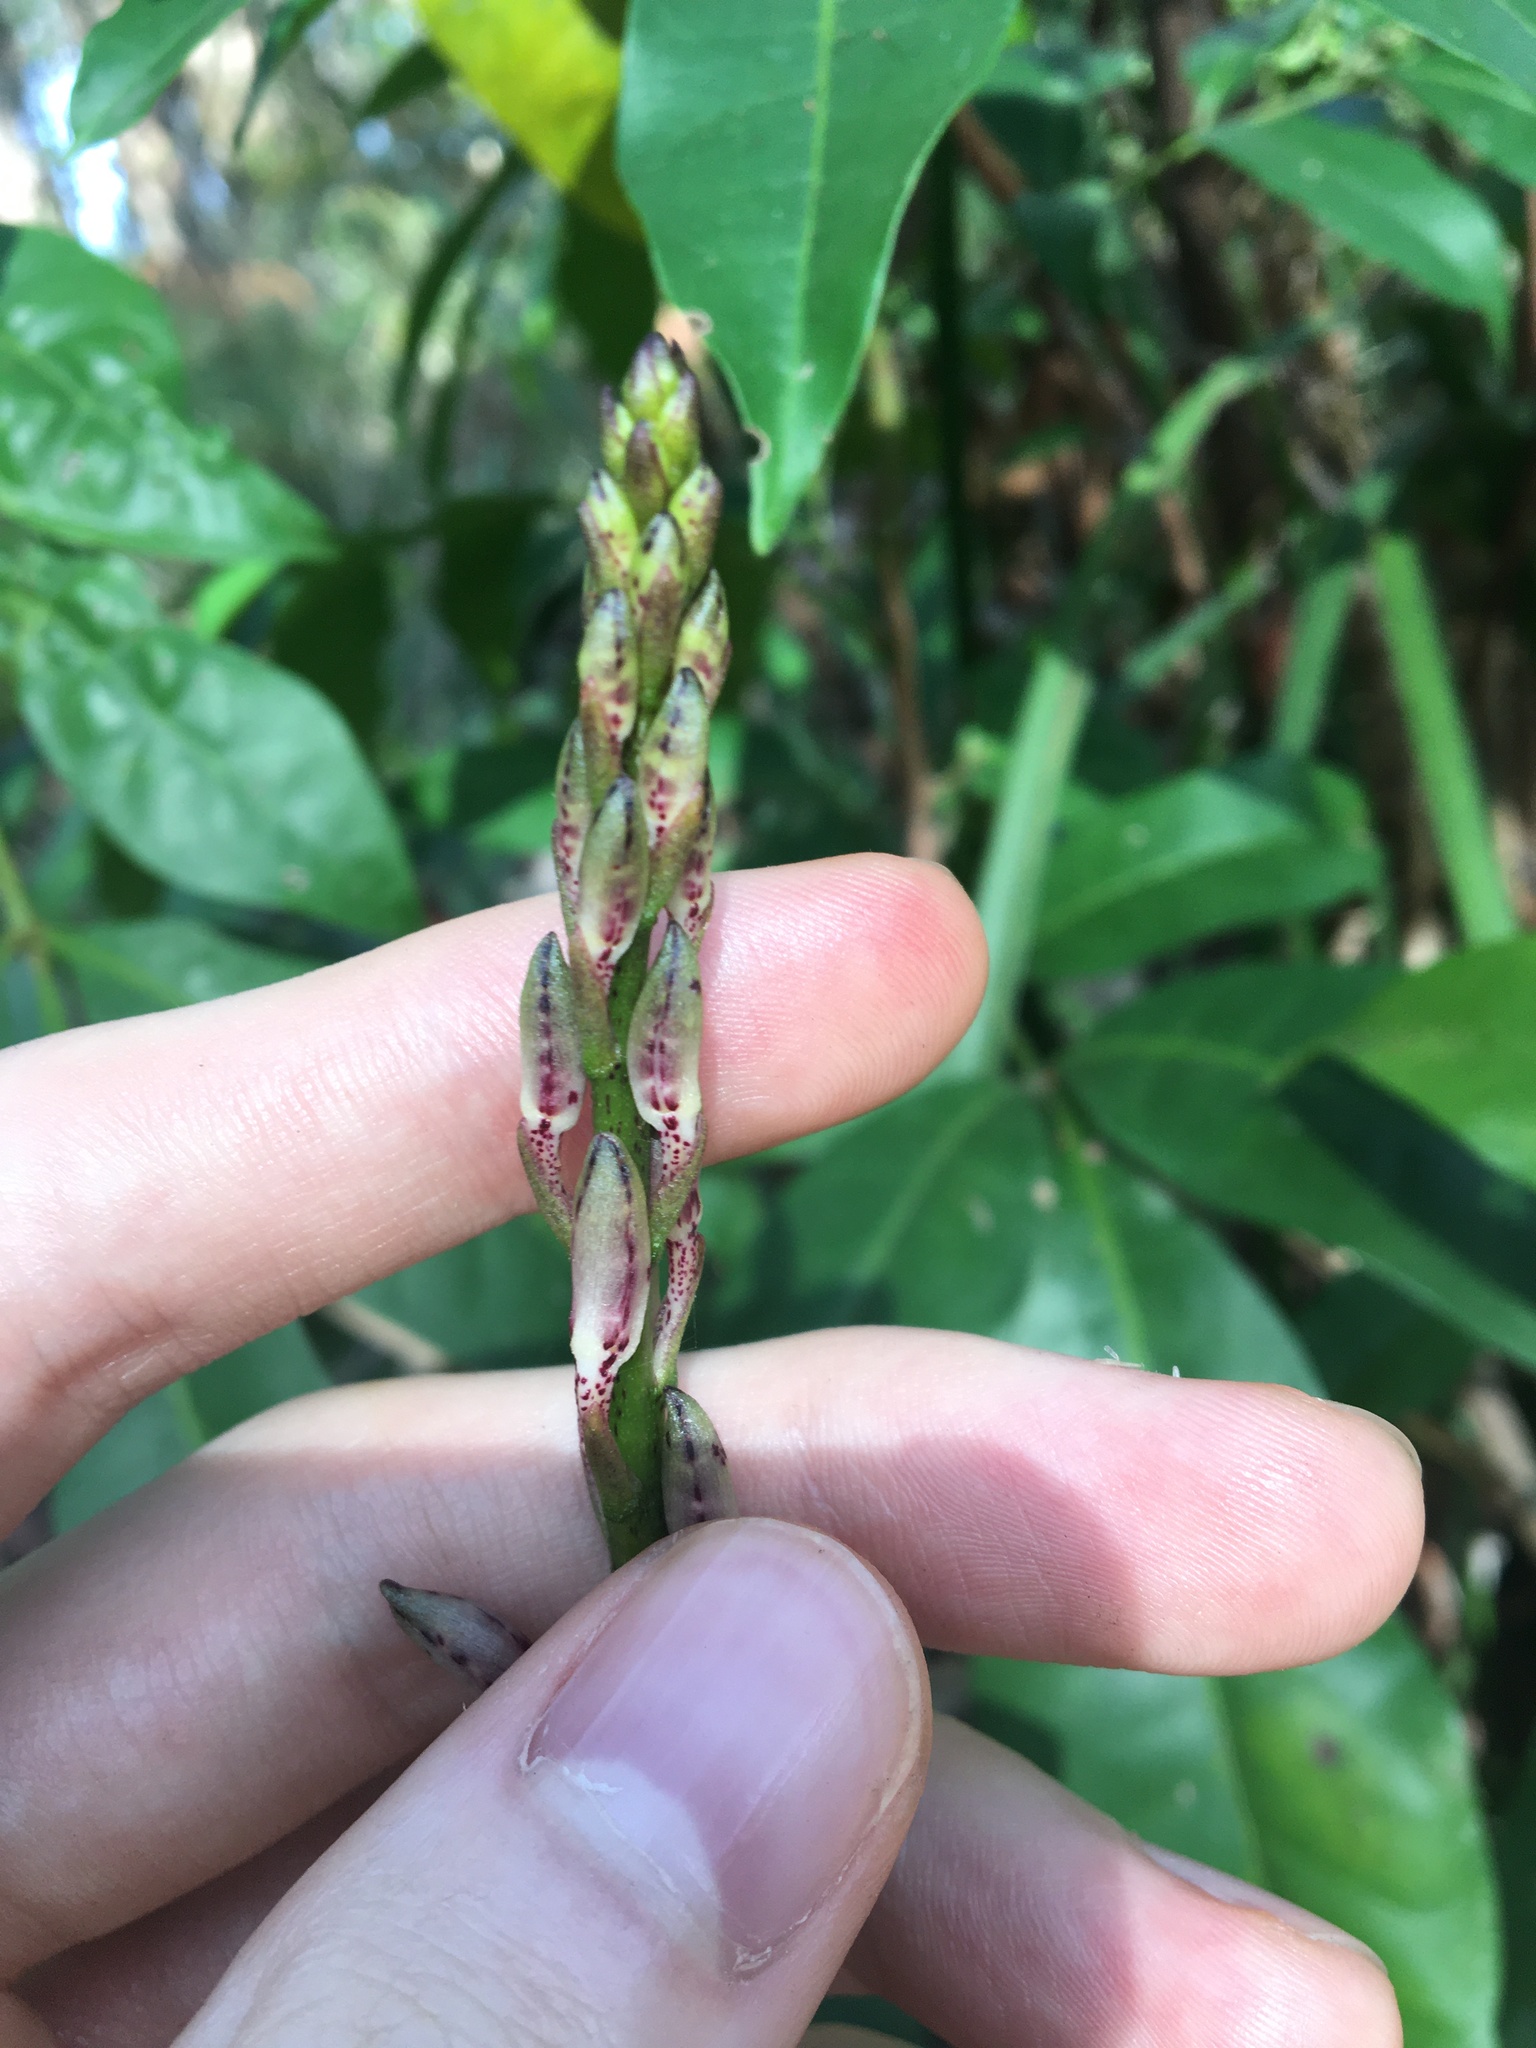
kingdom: Plantae
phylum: Tracheophyta
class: Liliopsida
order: Asparagales
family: Orchidaceae
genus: Dipodium
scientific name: Dipodium variegatum
